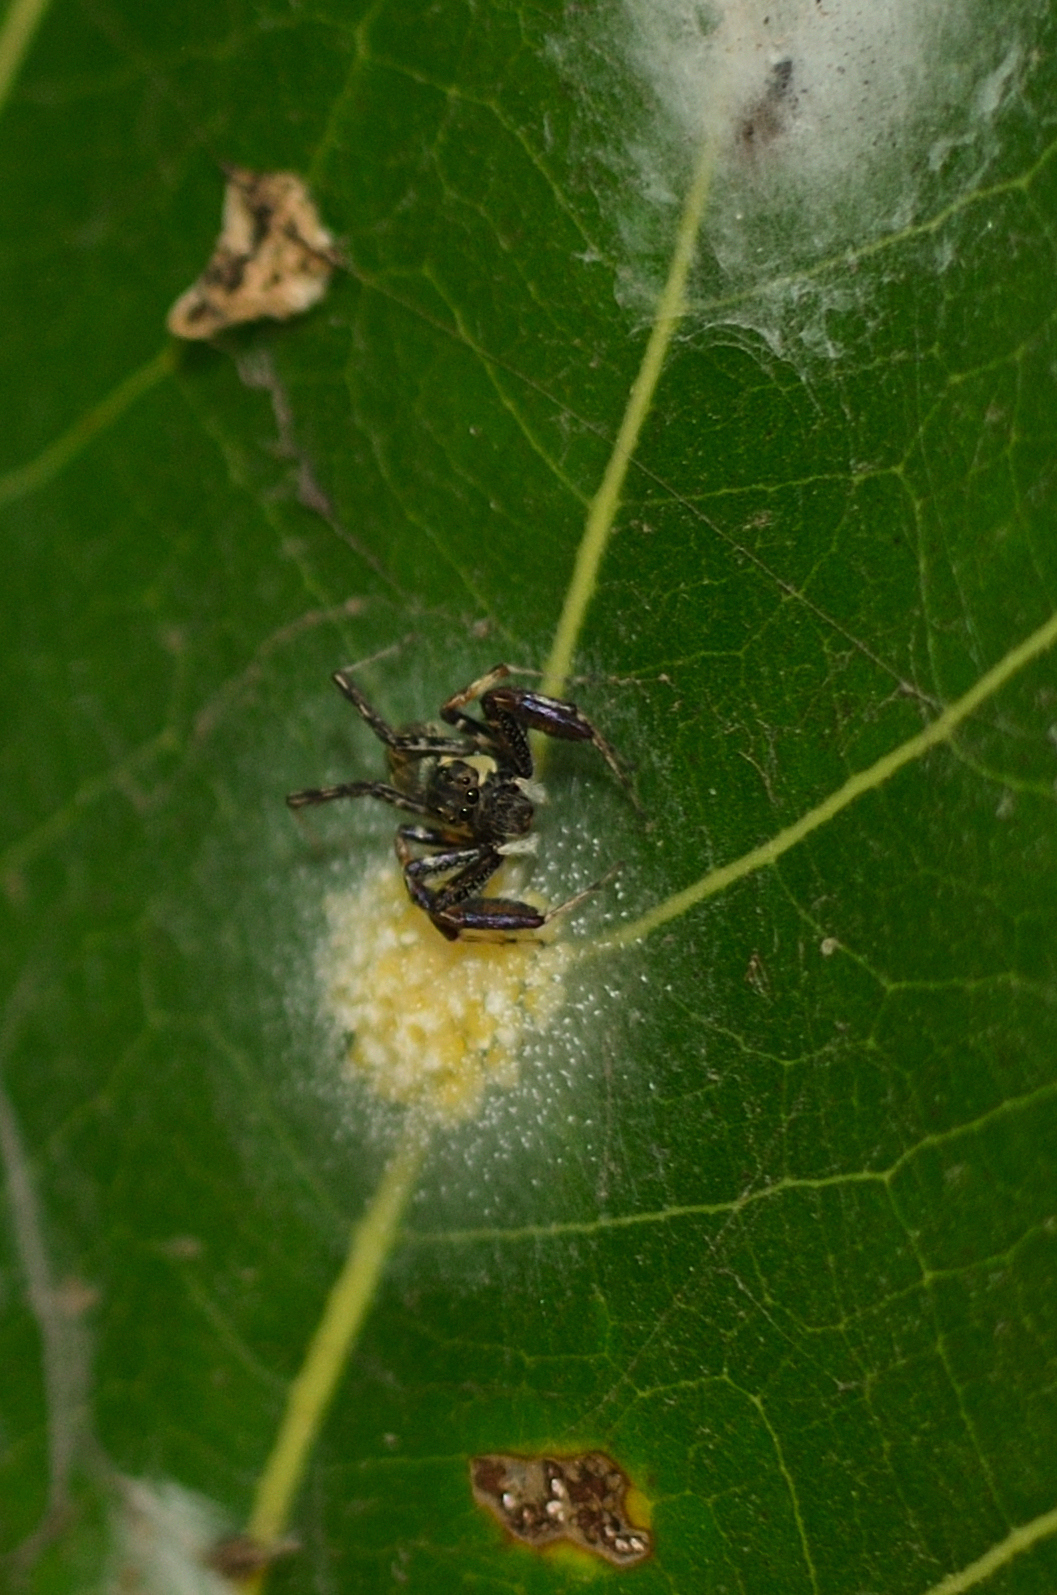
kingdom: Animalia
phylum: Arthropoda
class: Arachnida
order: Araneae
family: Salticidae
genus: Brettus
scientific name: Brettus cingulatus
